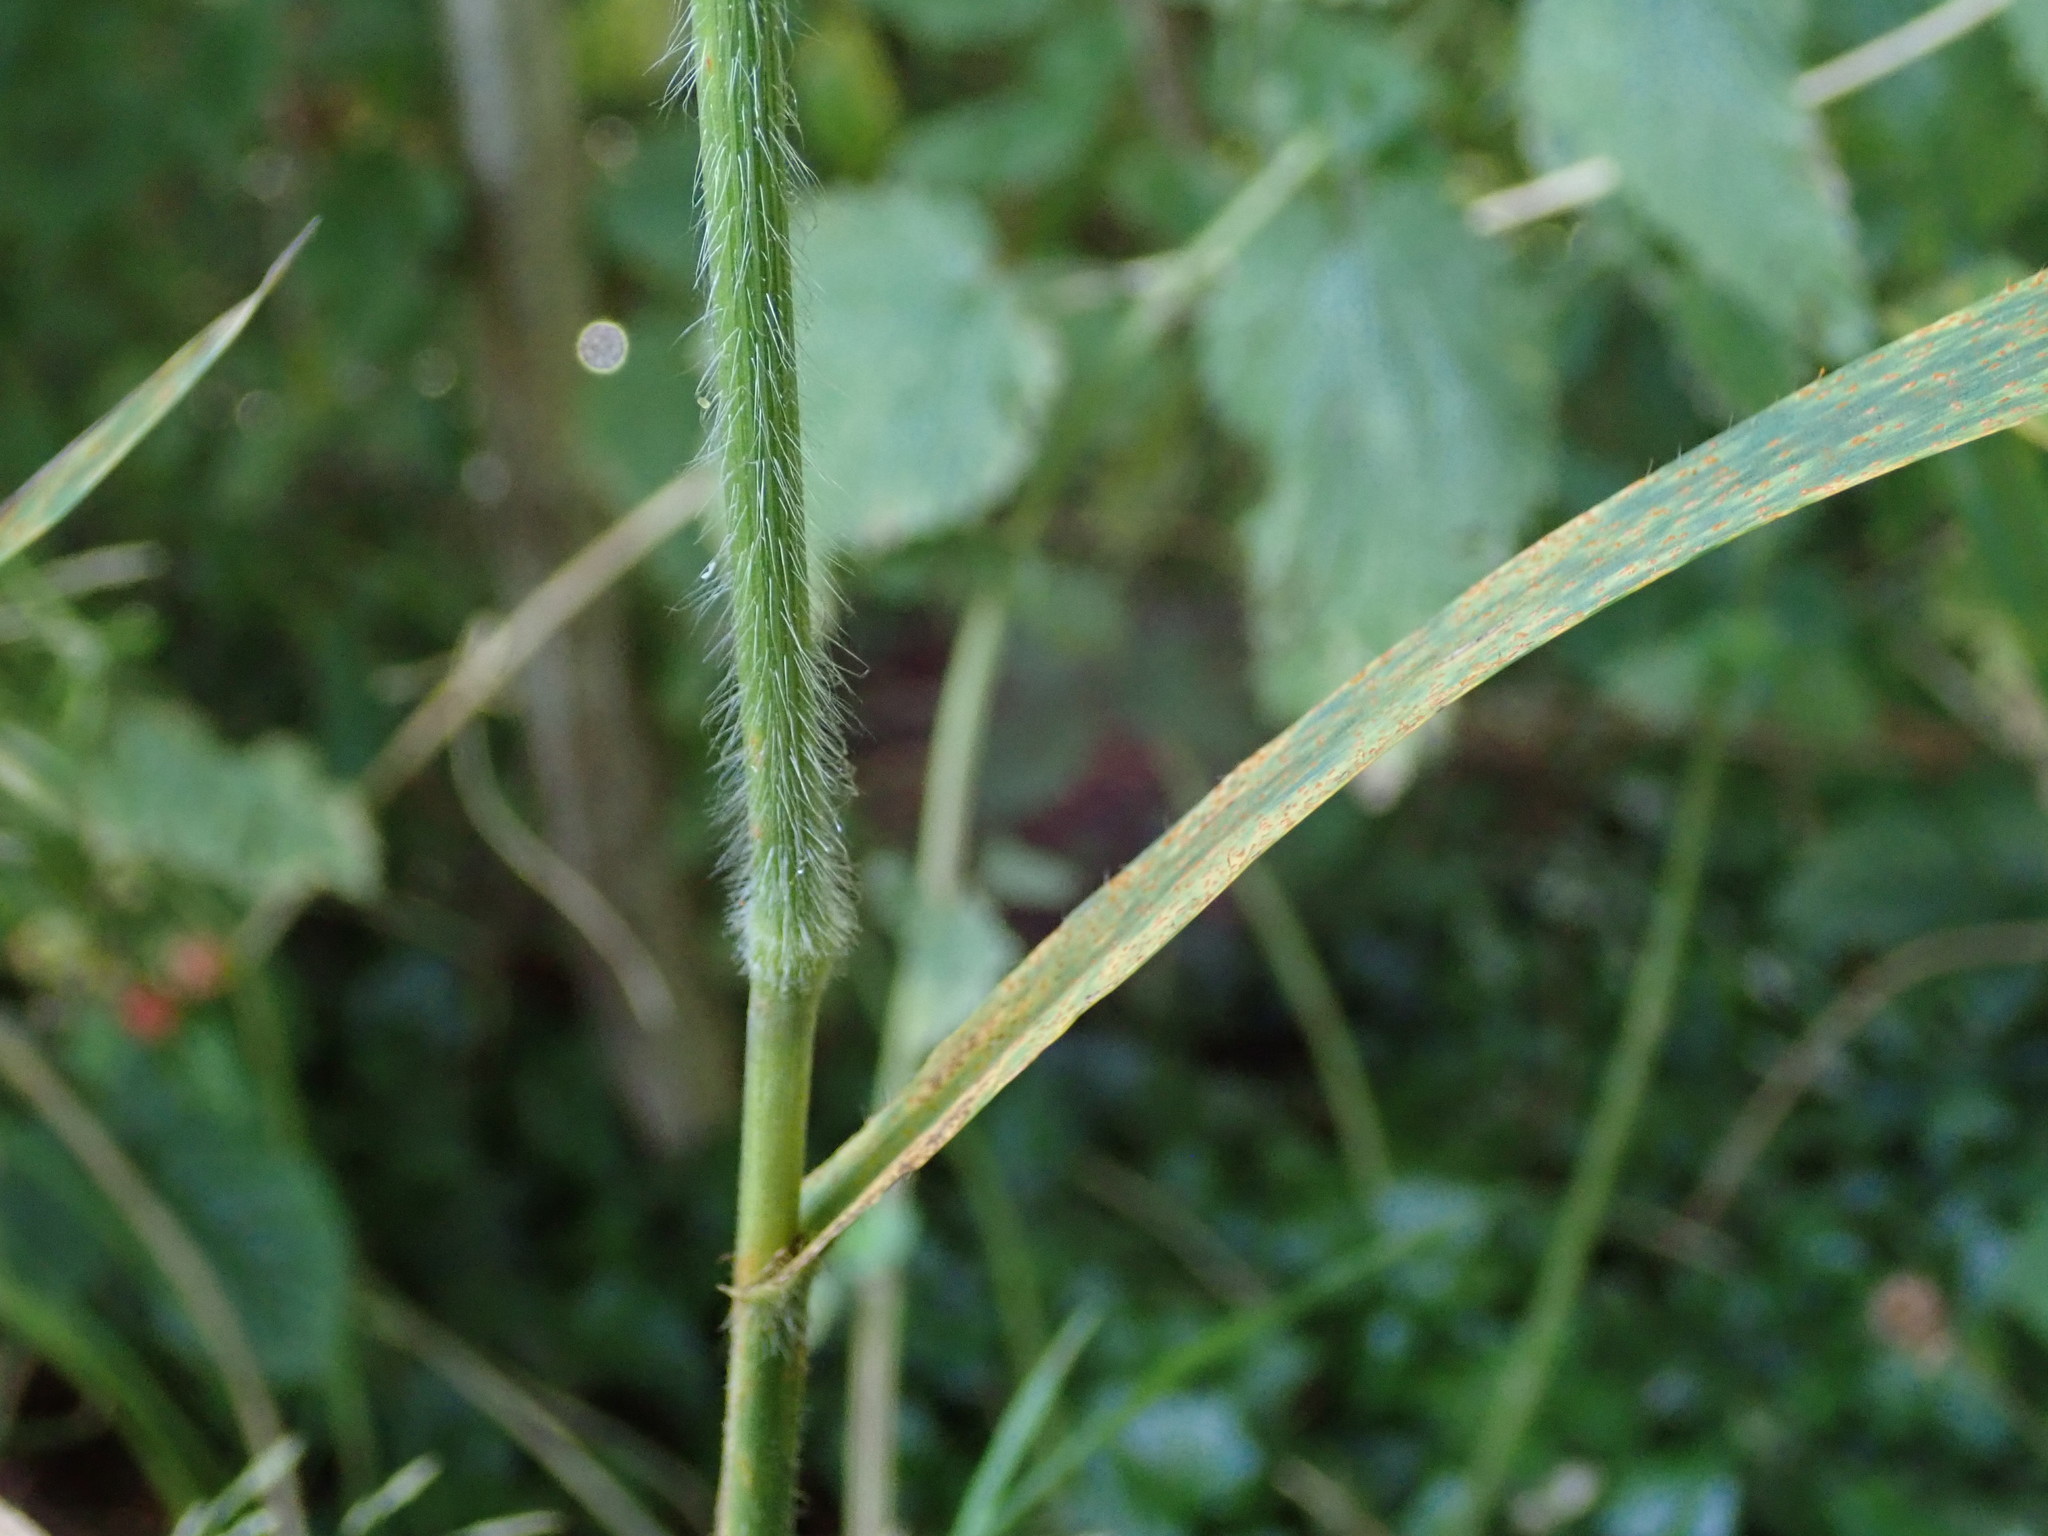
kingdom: Plantae
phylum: Tracheophyta
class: Liliopsida
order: Poales
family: Poaceae
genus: Bromus
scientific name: Bromus ramosus
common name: Hairy brome
